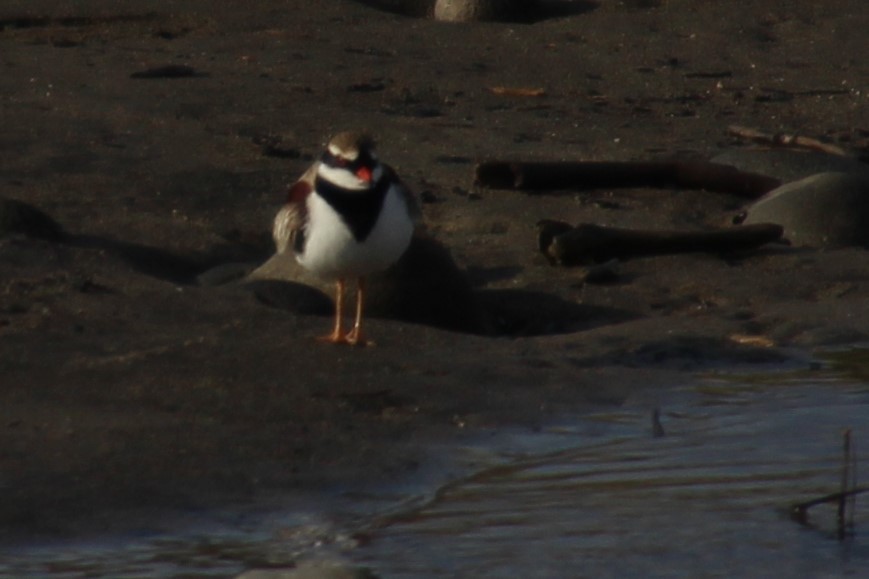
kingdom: Animalia
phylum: Chordata
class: Aves
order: Charadriiformes
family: Charadriidae
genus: Elseyornis
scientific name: Elseyornis melanops
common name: Black-fronted dotterel
